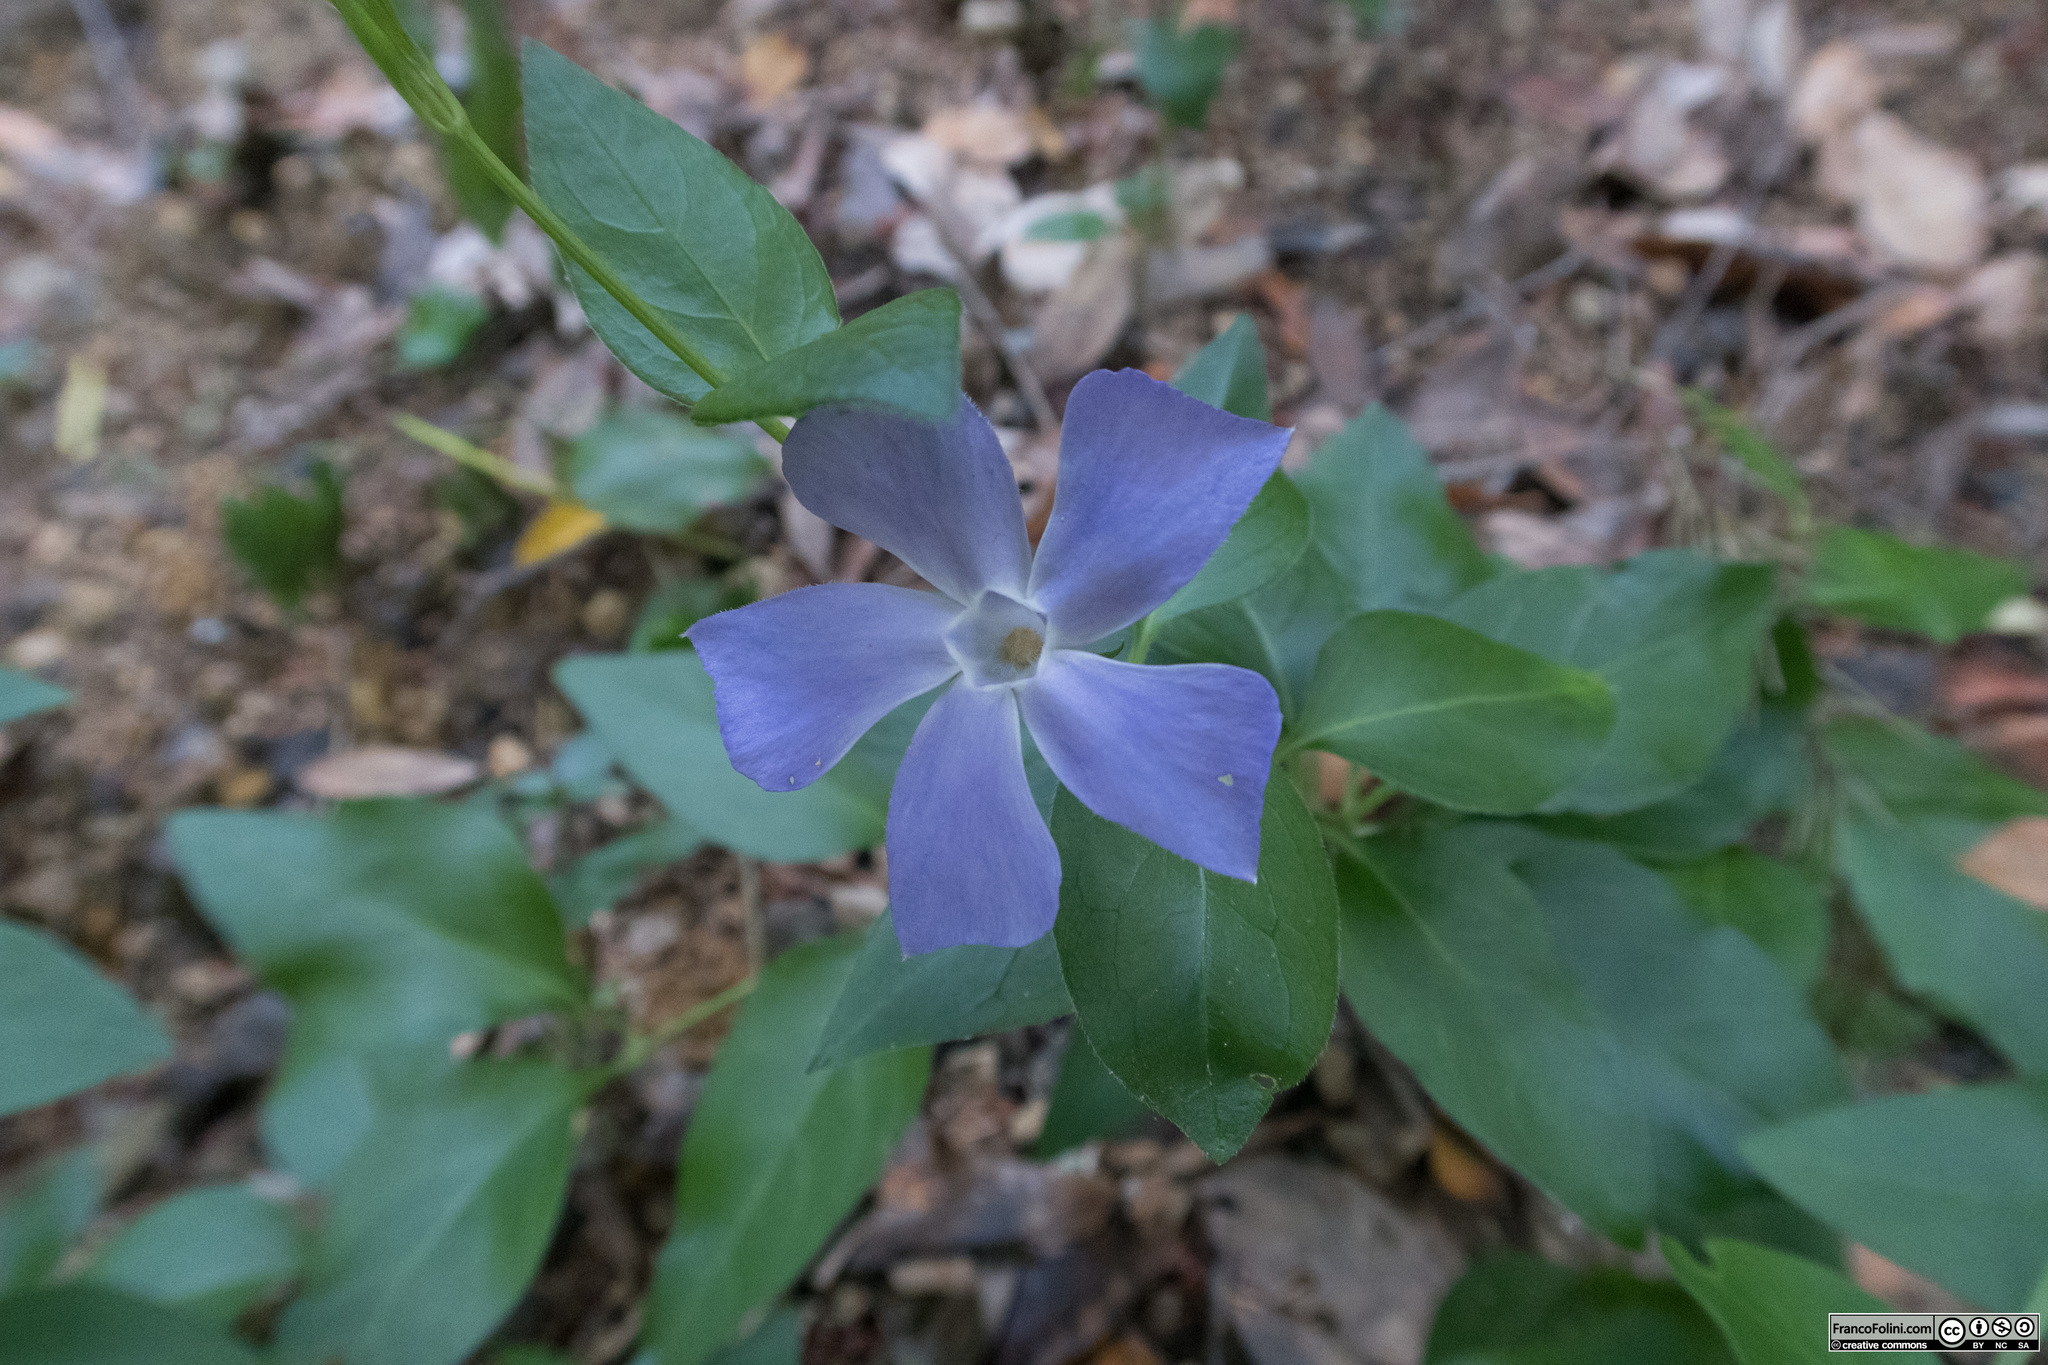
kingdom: Plantae
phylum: Tracheophyta
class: Magnoliopsida
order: Gentianales
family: Apocynaceae
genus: Vinca
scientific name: Vinca major
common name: Greater periwinkle
